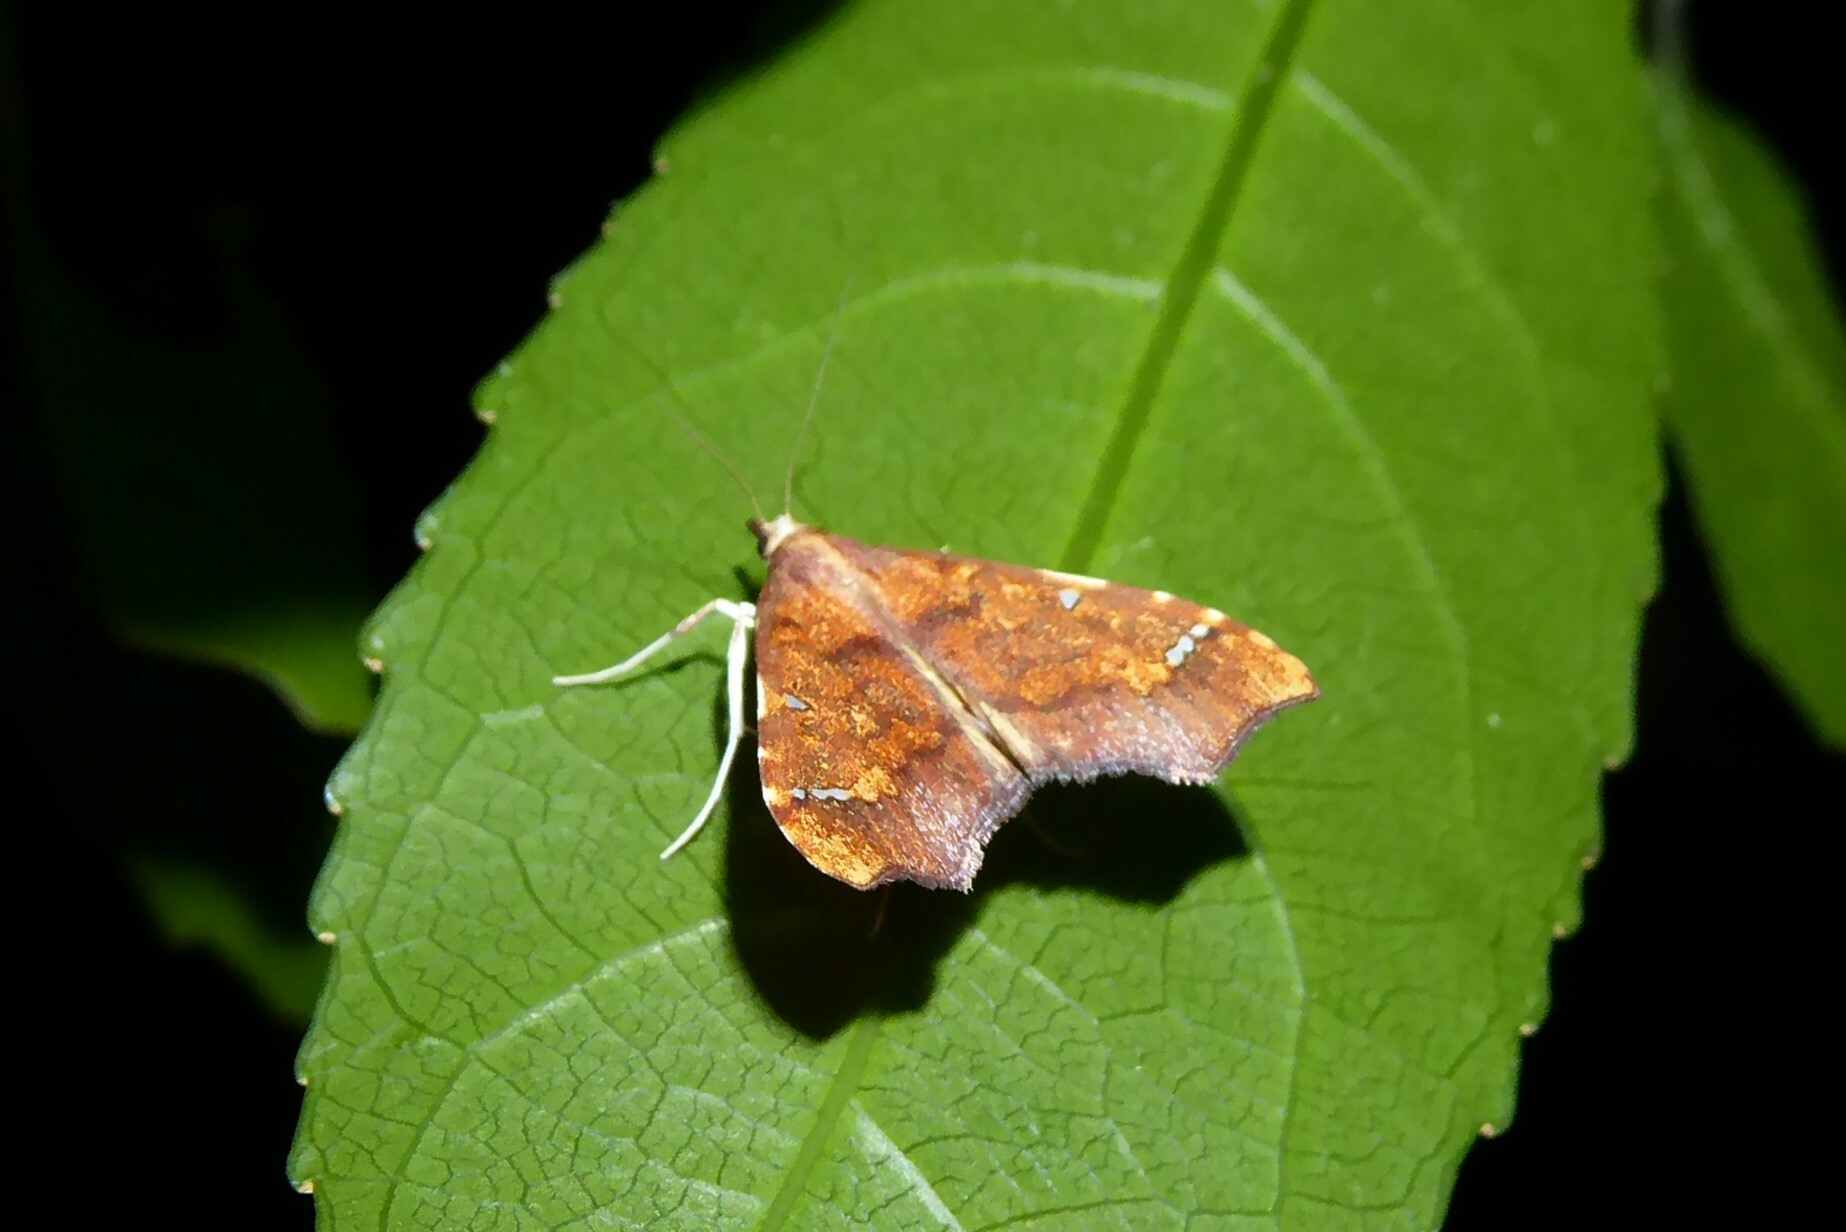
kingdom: Animalia
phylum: Arthropoda
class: Insecta
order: Lepidoptera
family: Crambidae
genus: Deana
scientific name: Deana hybreasalis
